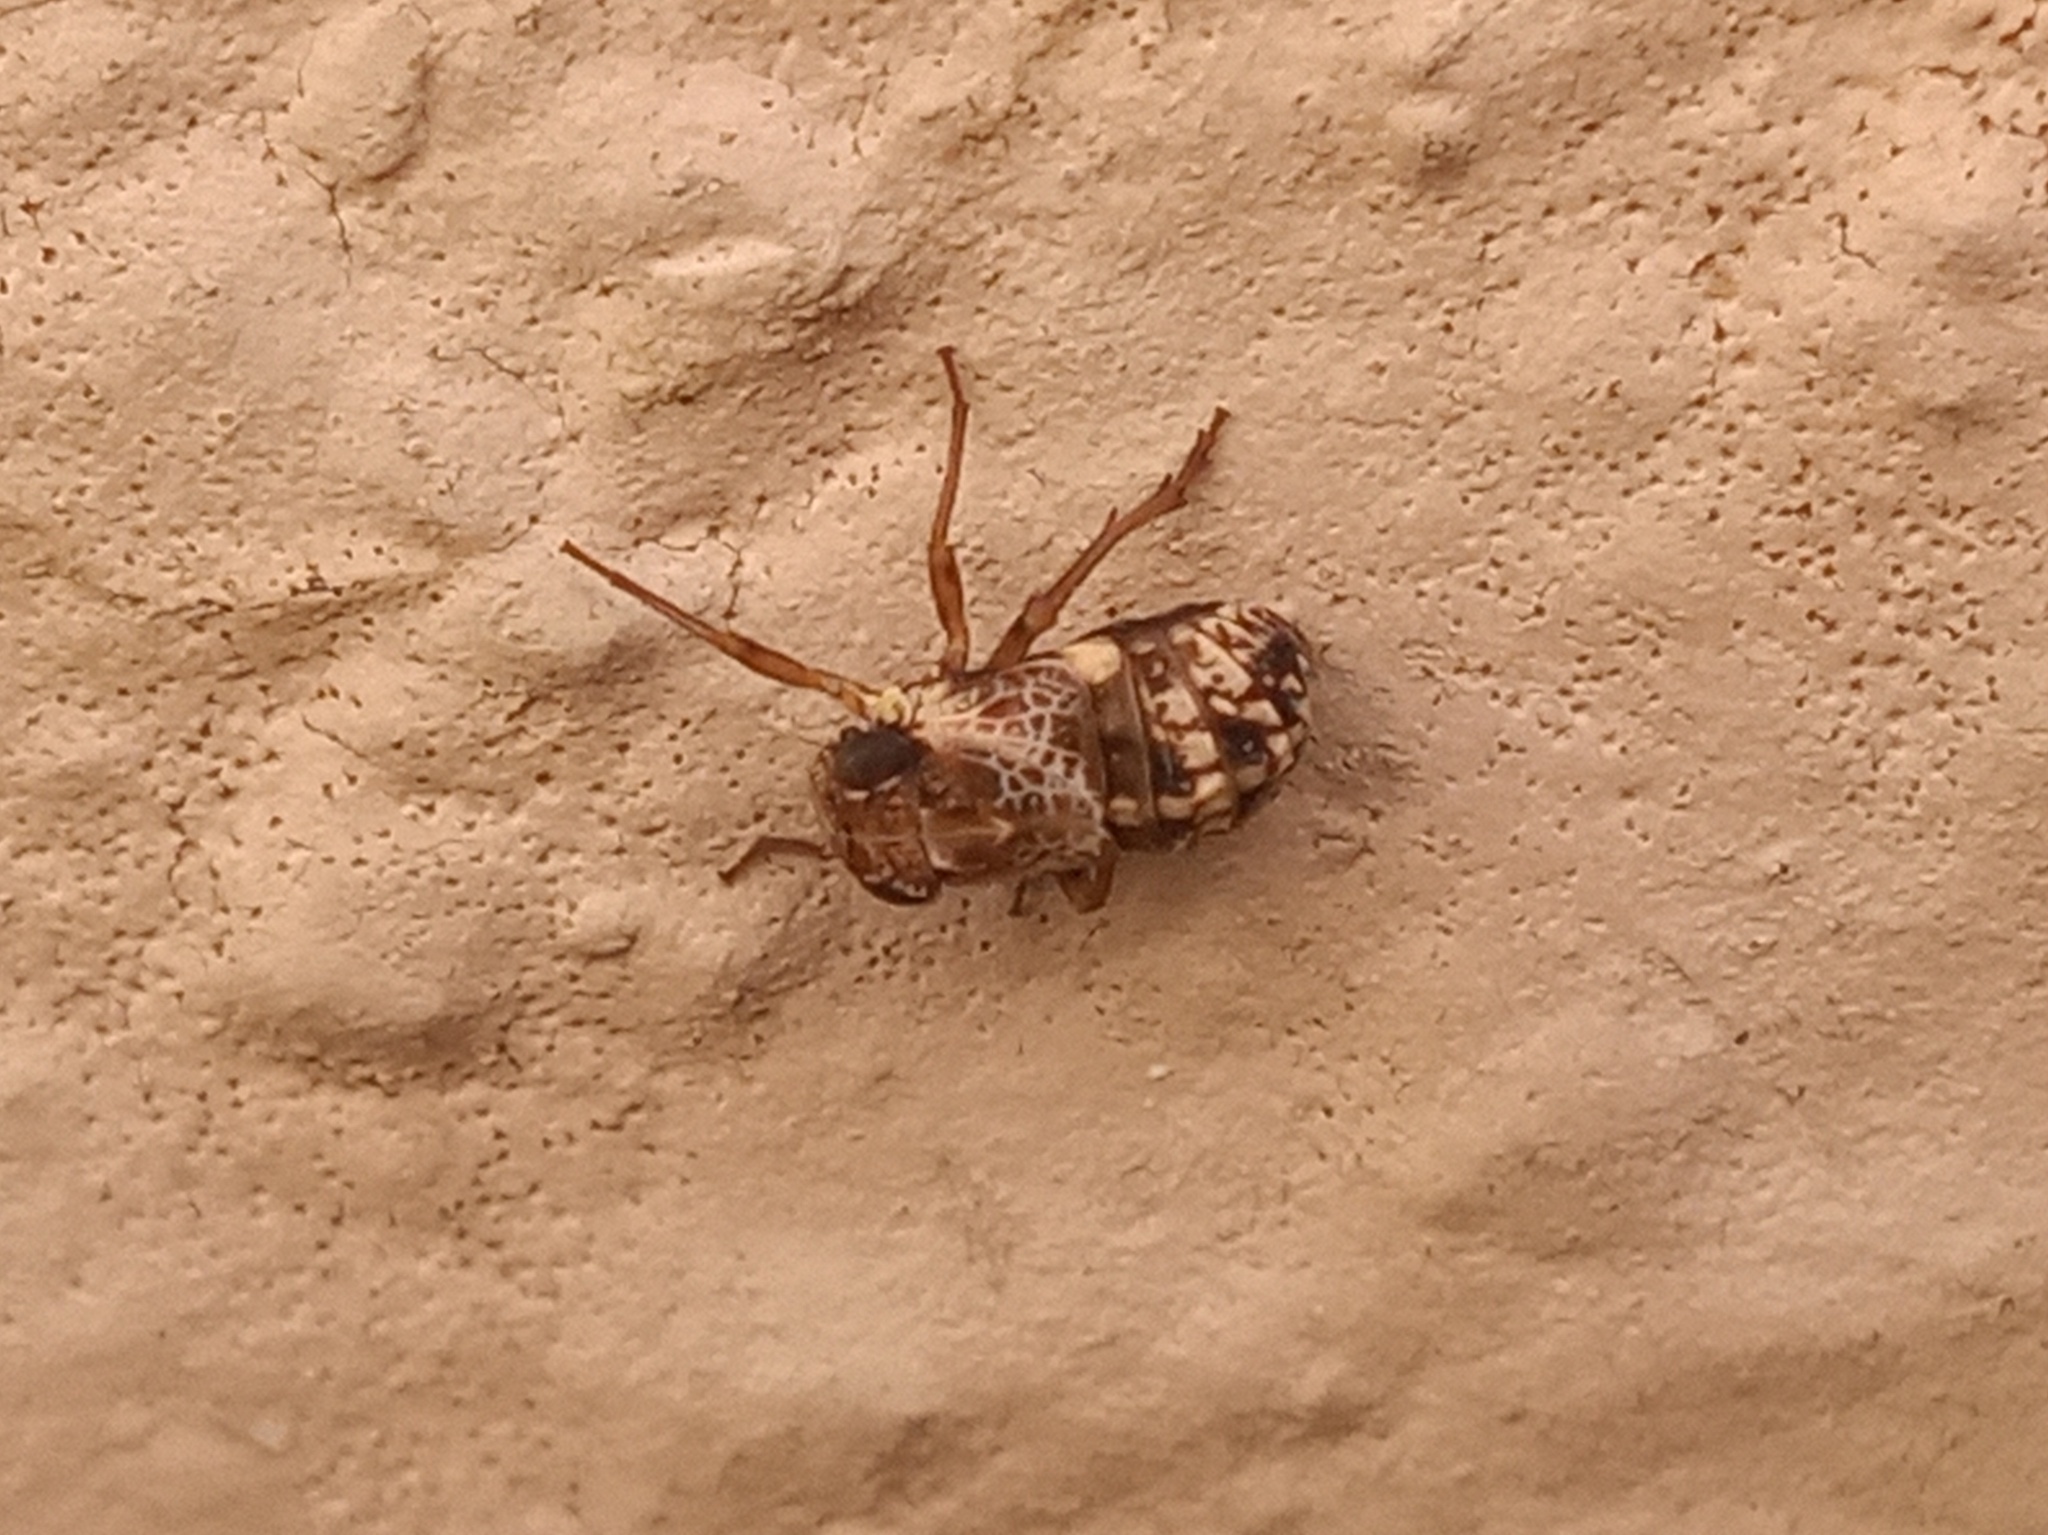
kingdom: Animalia
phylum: Arthropoda
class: Insecta
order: Hemiptera
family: Caliscelidae
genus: Bruchomorpha
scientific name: Bruchomorpha decorata
